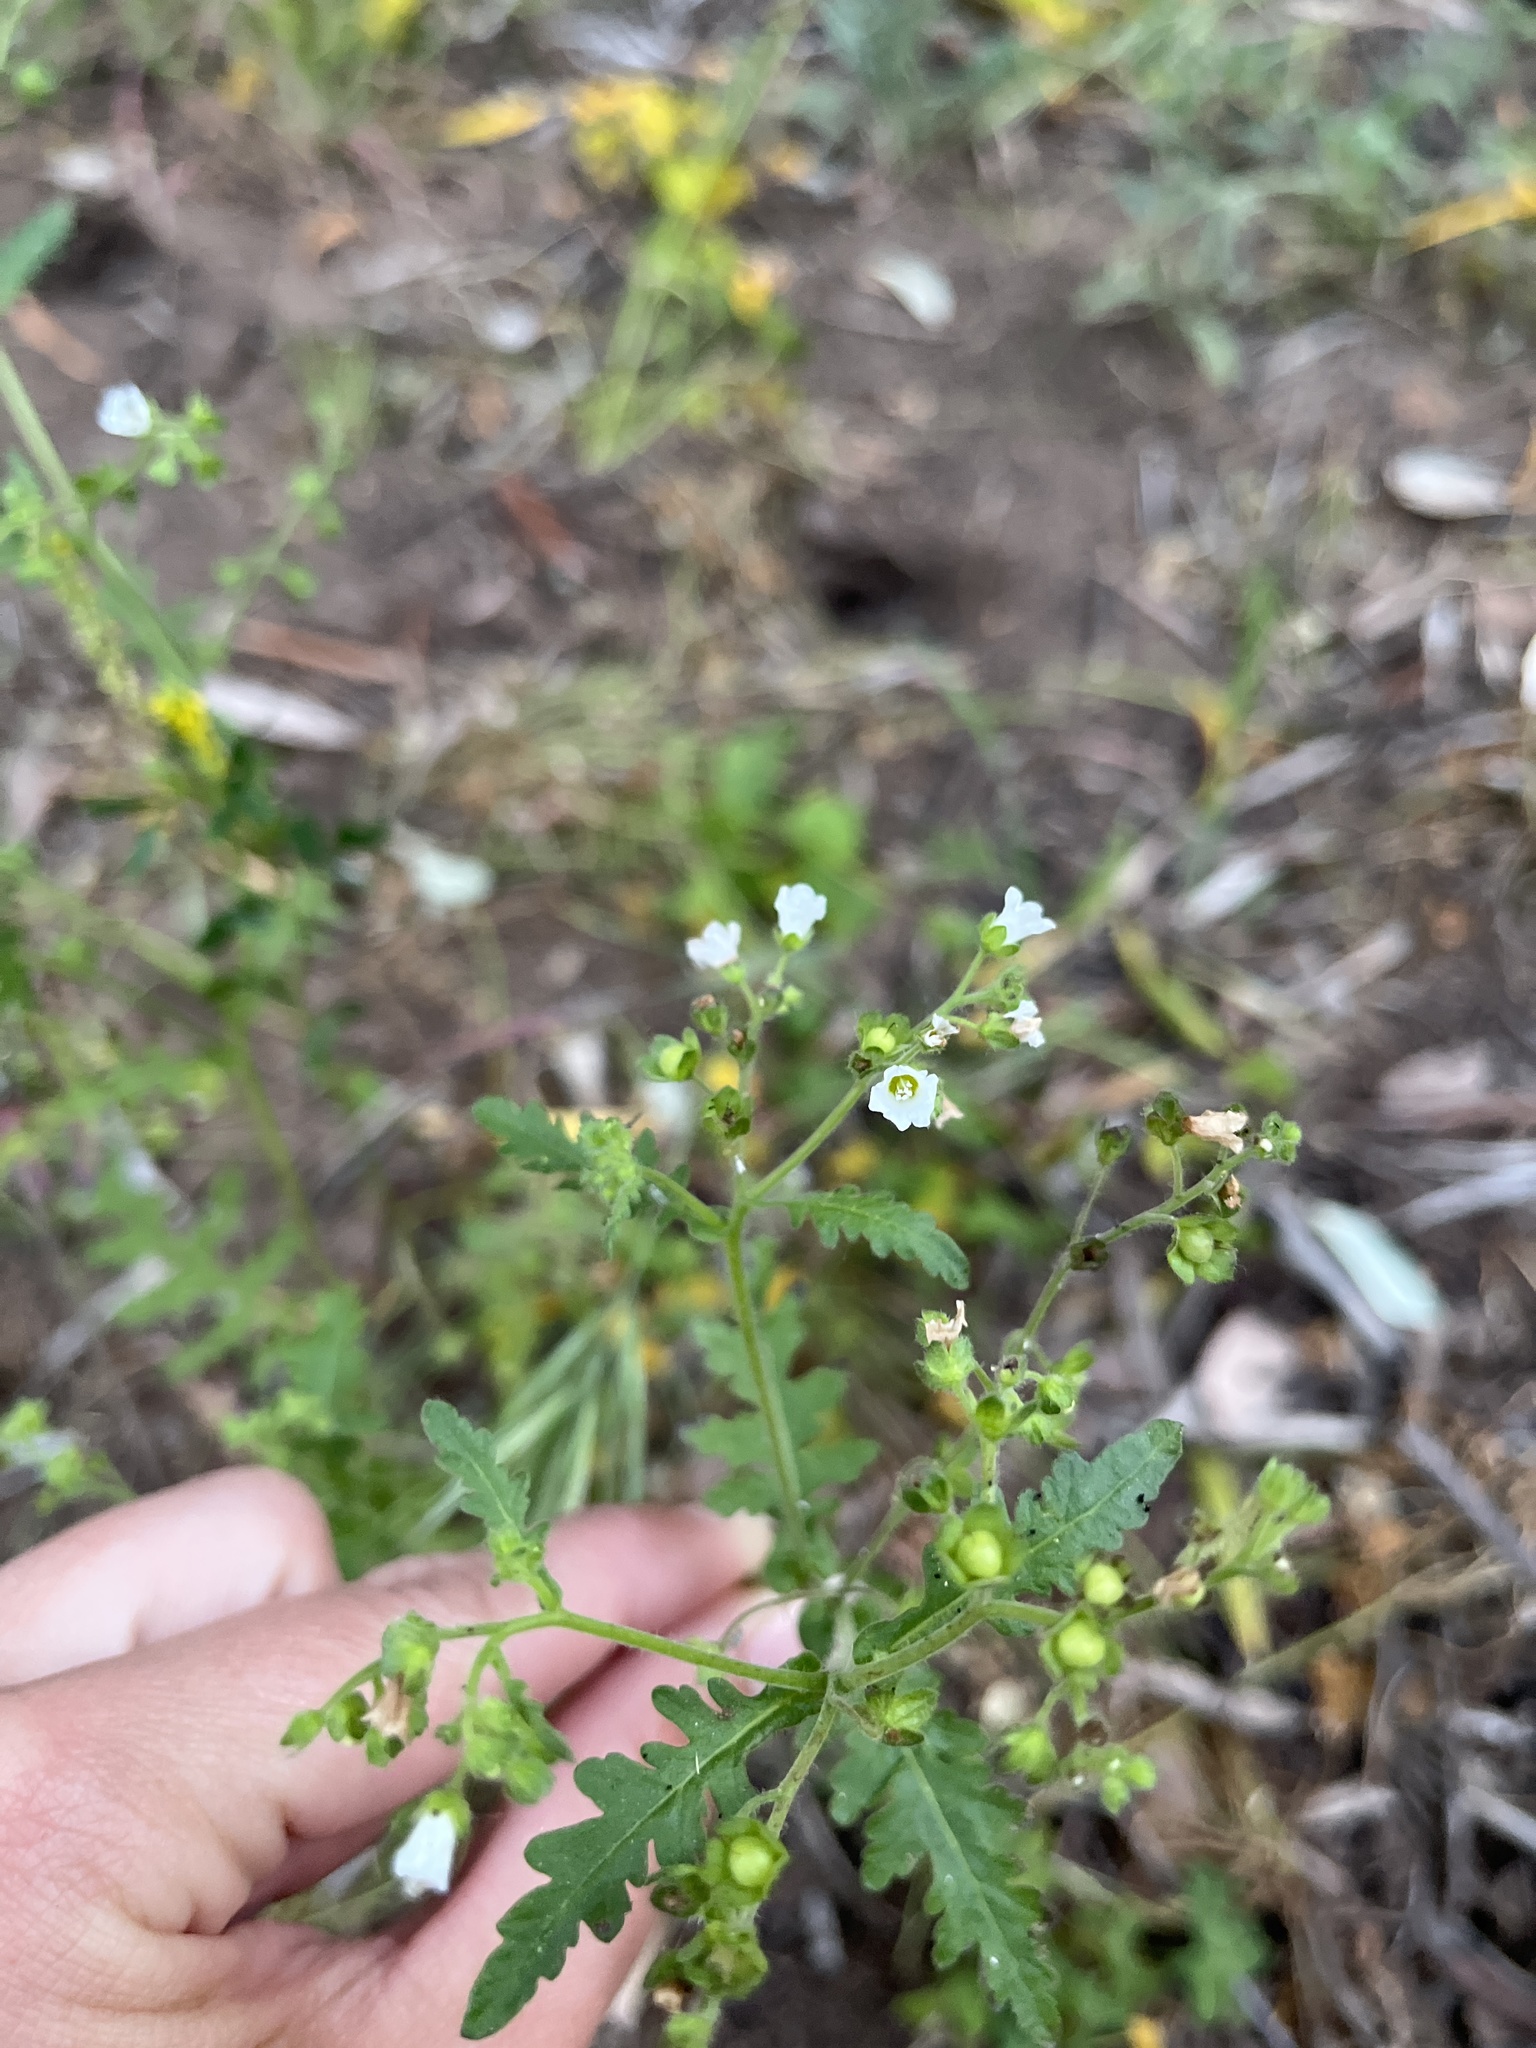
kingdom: Plantae
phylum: Tracheophyta
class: Magnoliopsida
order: Boraginales
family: Hydrophyllaceae
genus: Eucrypta
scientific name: Eucrypta chrysanthemifolia
